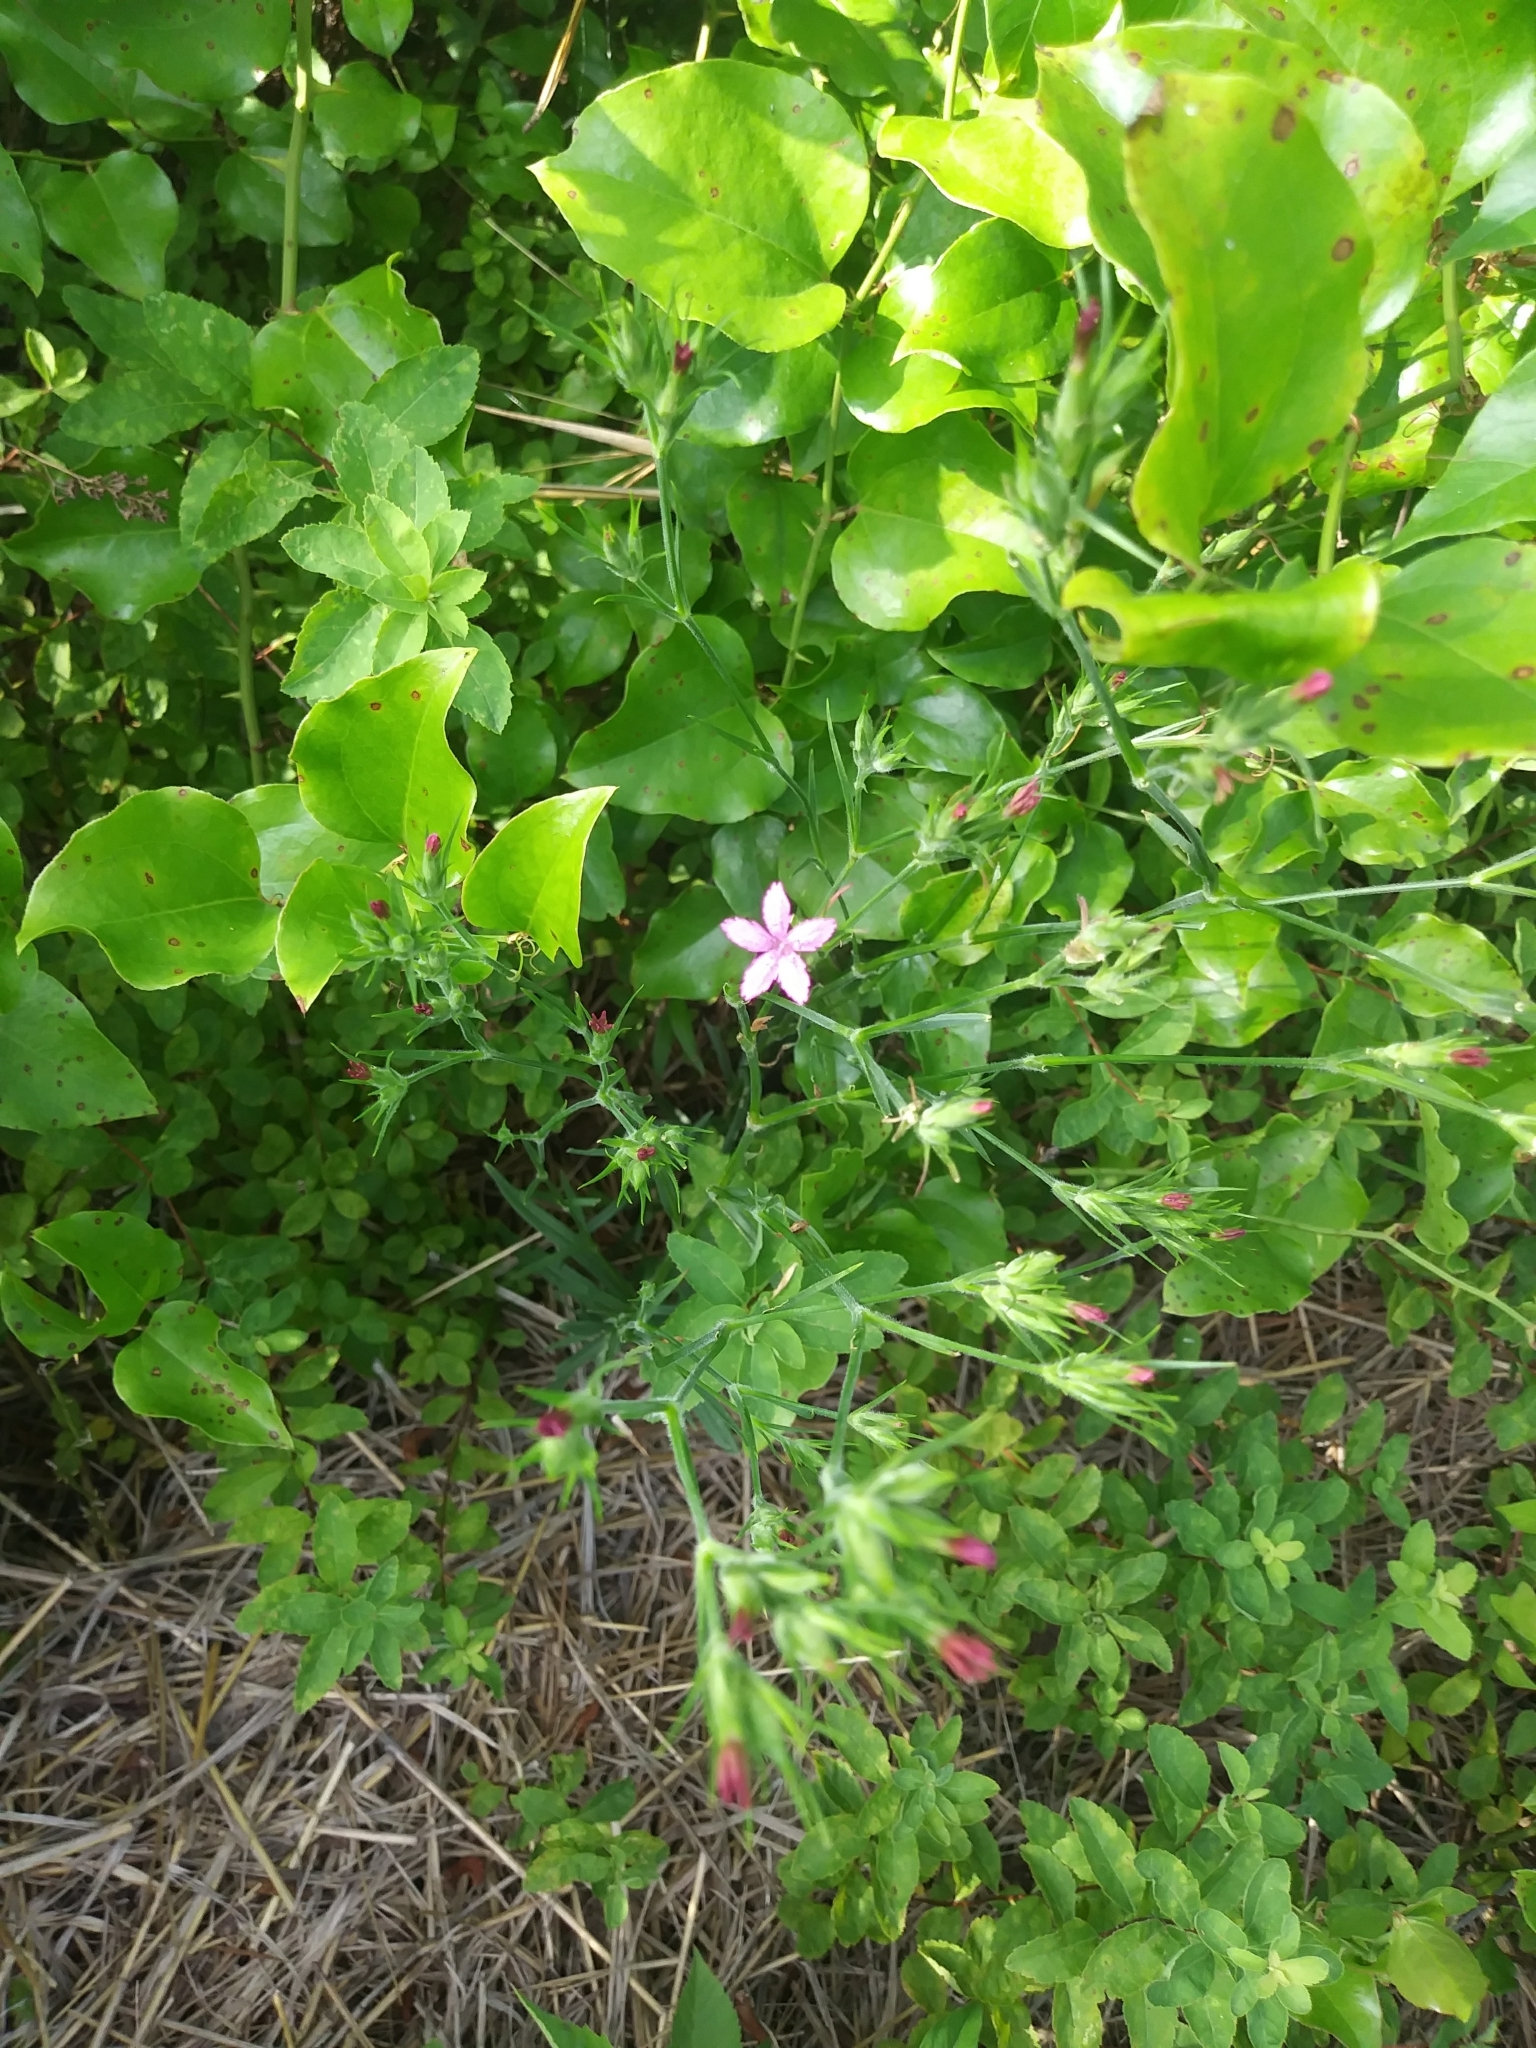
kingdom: Plantae
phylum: Tracheophyta
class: Magnoliopsida
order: Caryophyllales
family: Caryophyllaceae
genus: Dianthus
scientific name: Dianthus armeria
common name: Deptford pink
